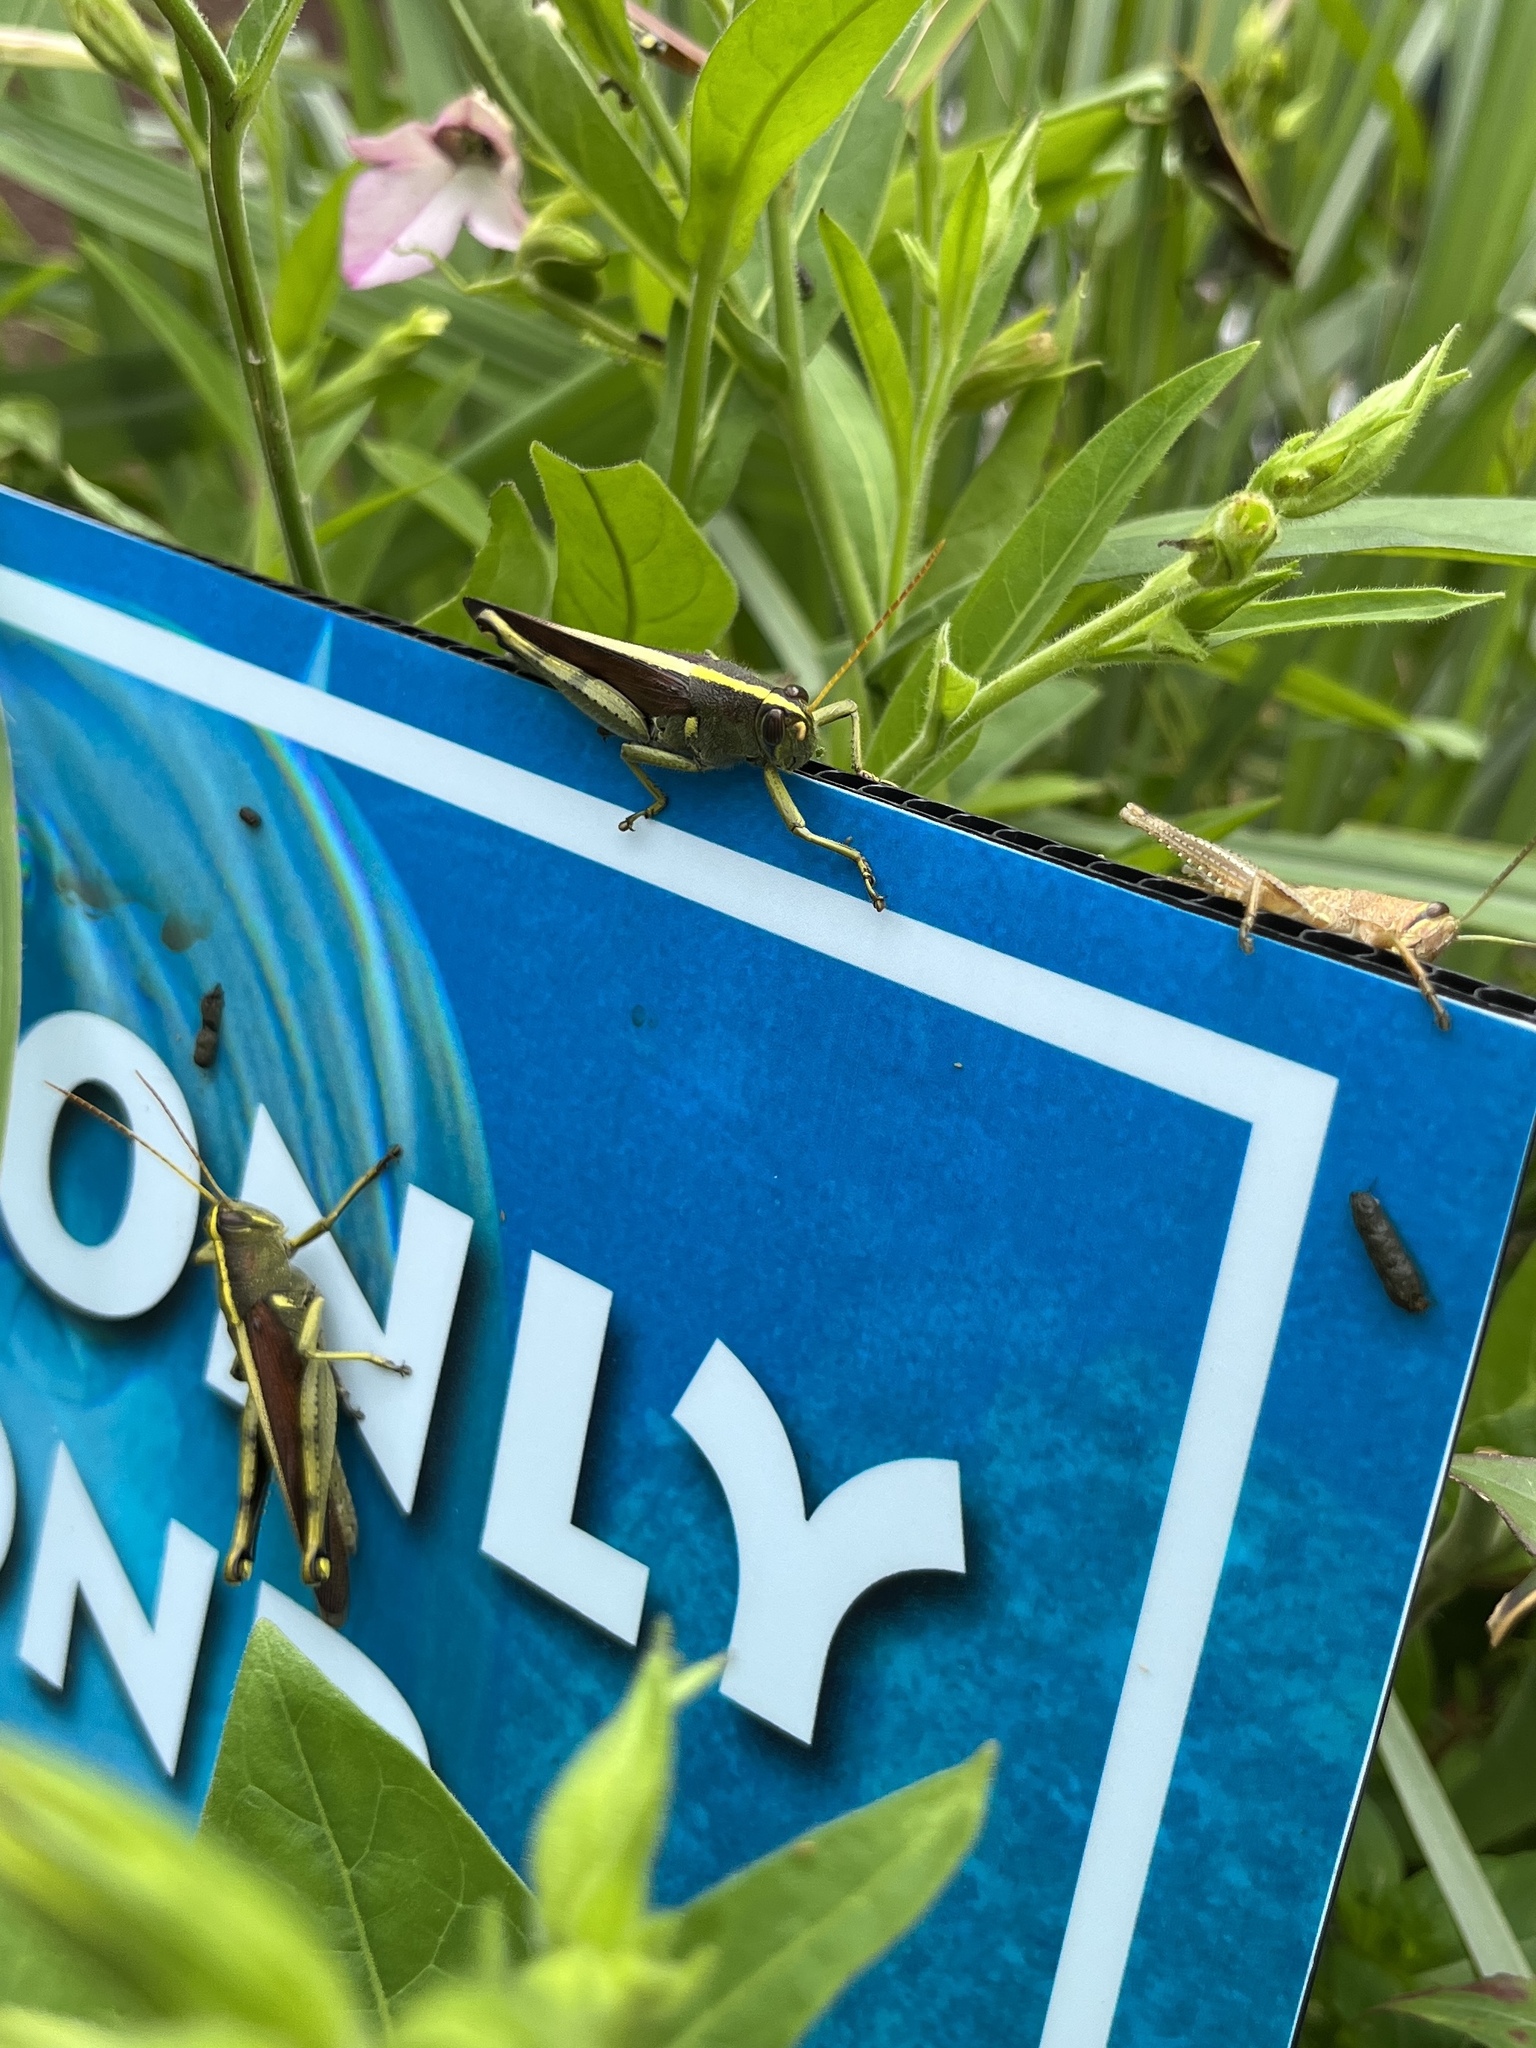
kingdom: Animalia
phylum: Arthropoda
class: Insecta
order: Orthoptera
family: Acrididae
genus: Schistocerca
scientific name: Schistocerca obscura
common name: Obscure bird grasshopper
